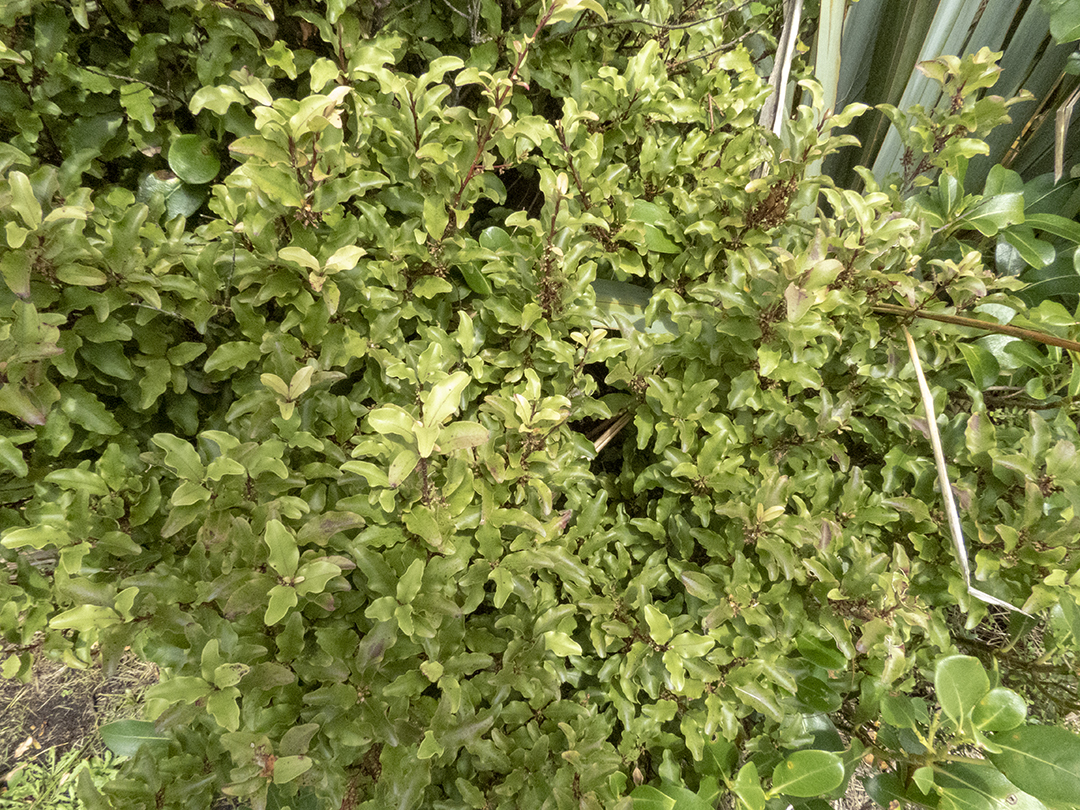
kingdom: Plantae
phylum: Tracheophyta
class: Magnoliopsida
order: Ericales
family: Primulaceae
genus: Myrsine
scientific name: Myrsine australis
